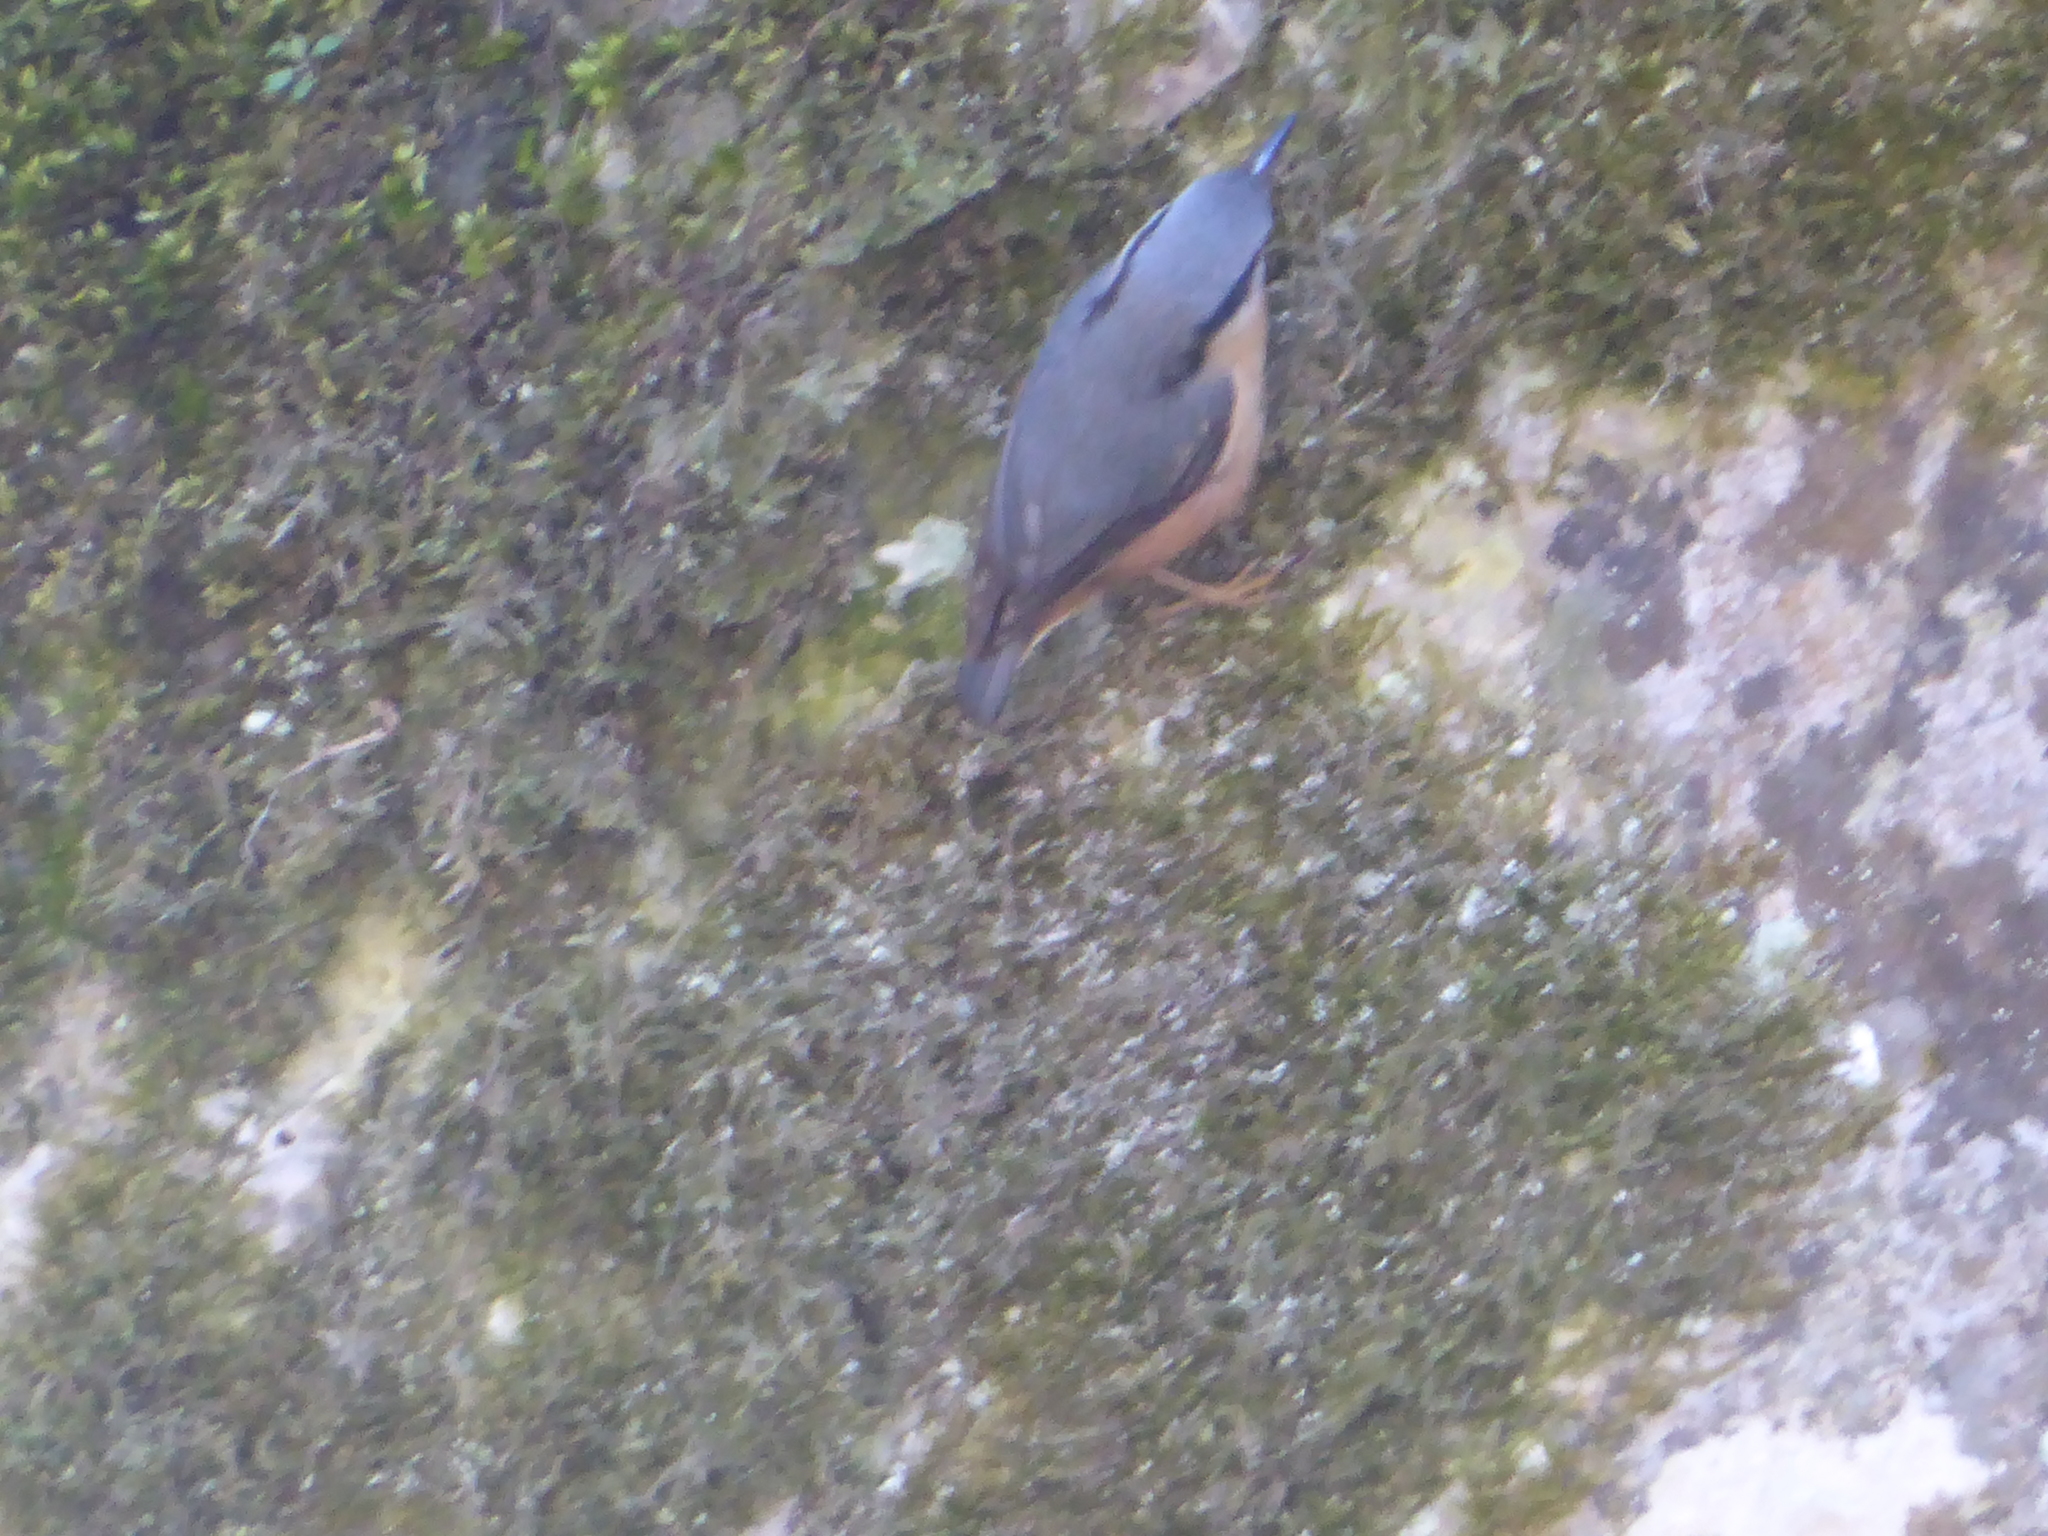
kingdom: Animalia
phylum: Chordata
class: Aves
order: Passeriformes
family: Sittidae
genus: Sitta
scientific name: Sitta europaea
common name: Eurasian nuthatch
